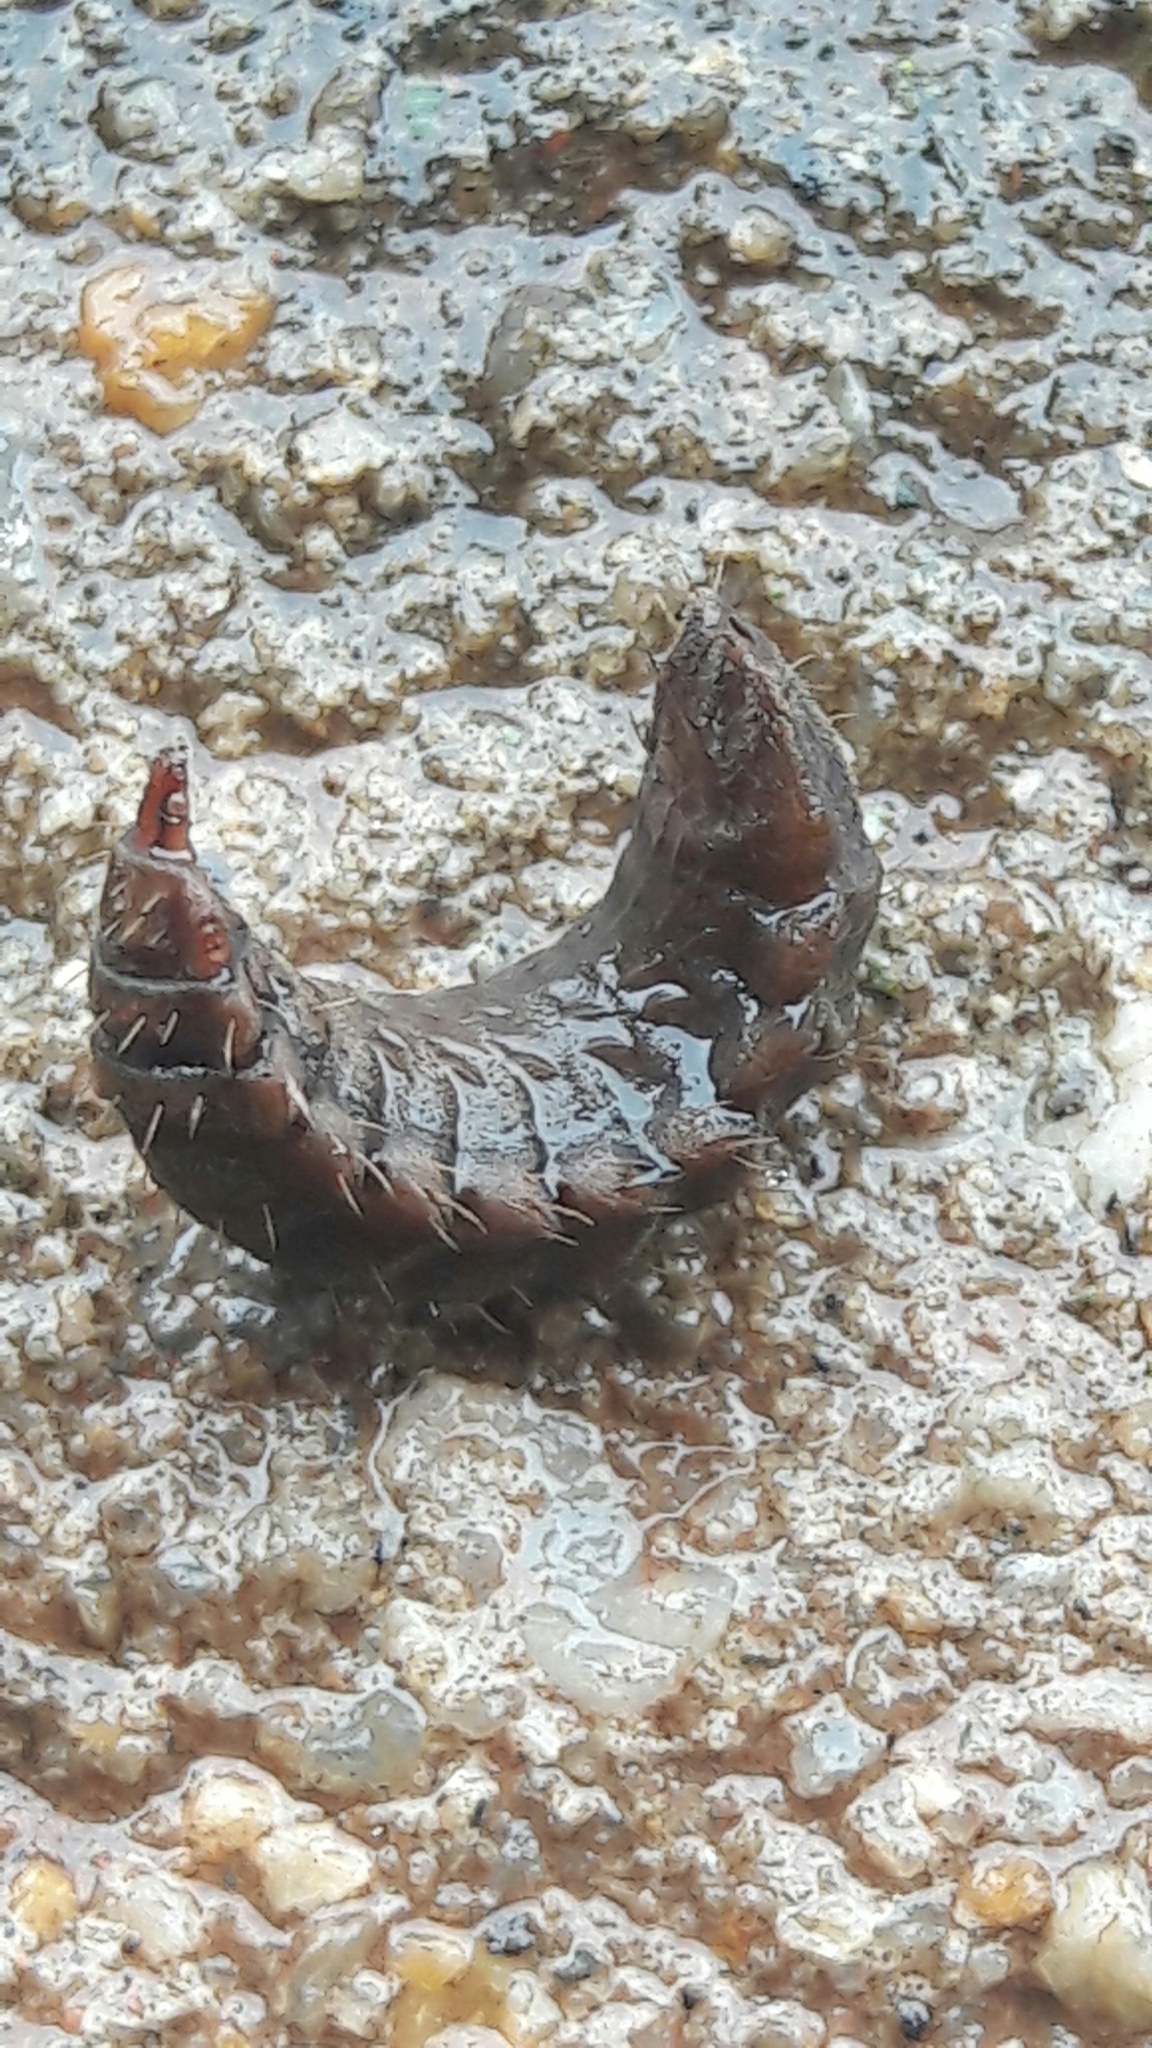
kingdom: Animalia
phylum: Arthropoda
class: Insecta
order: Diptera
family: Stratiomyidae
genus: Hermetia
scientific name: Hermetia illucens
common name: Black soldier fly
